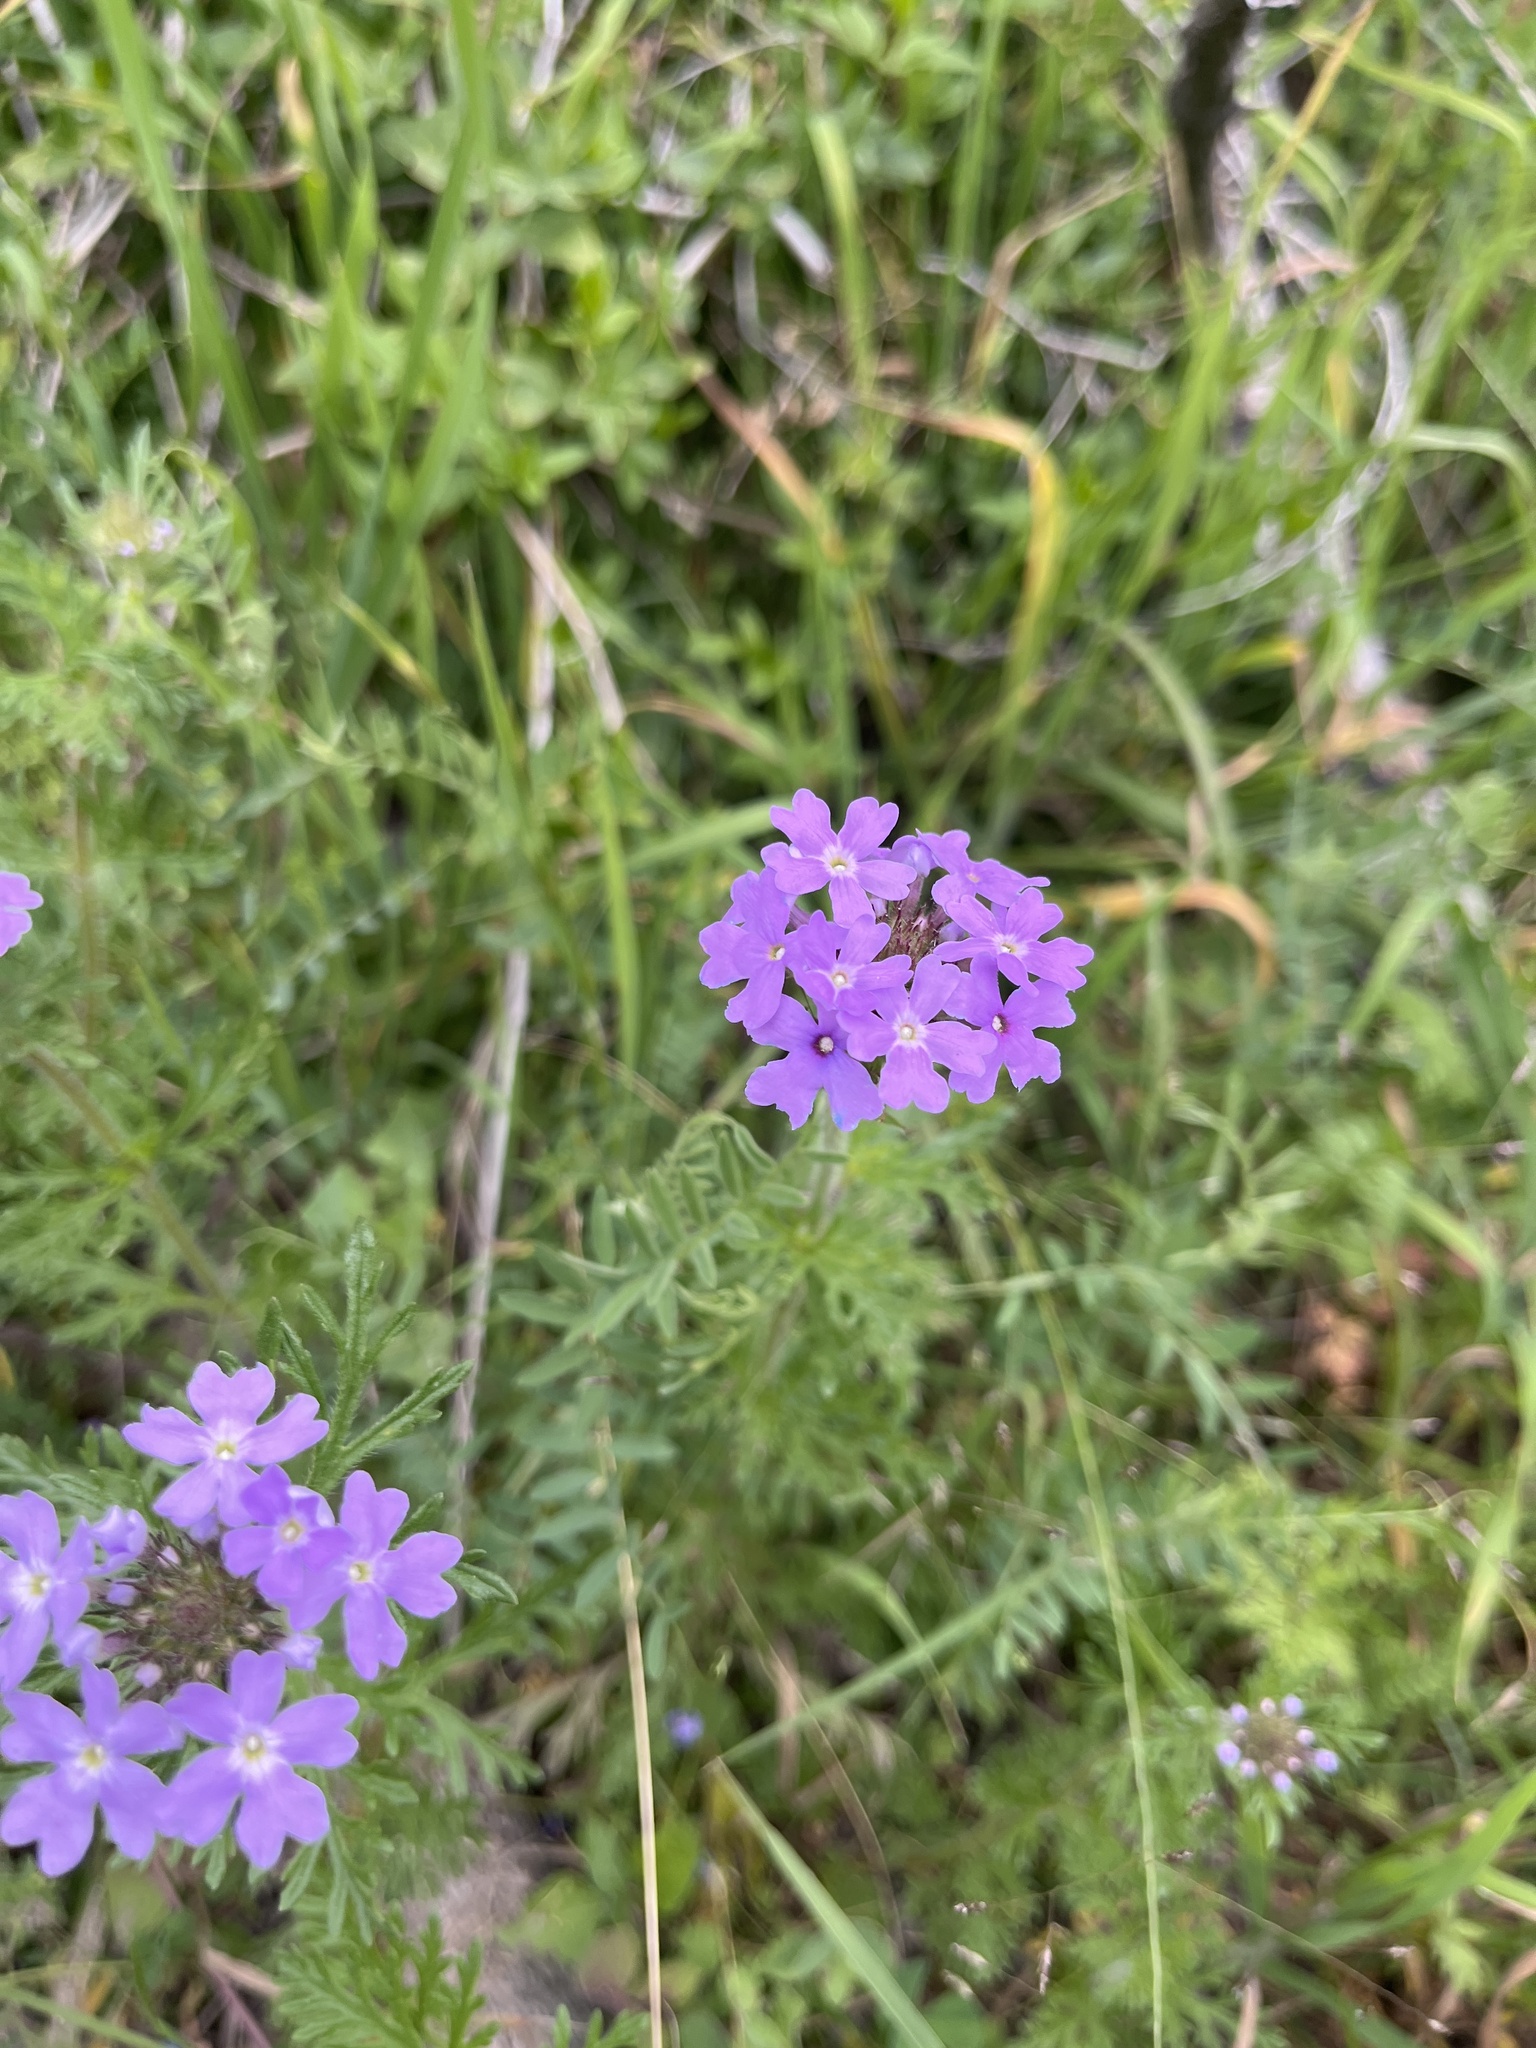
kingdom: Plantae
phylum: Tracheophyta
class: Magnoliopsida
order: Lamiales
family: Verbenaceae
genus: Verbena
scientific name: Verbena bipinnatifida
